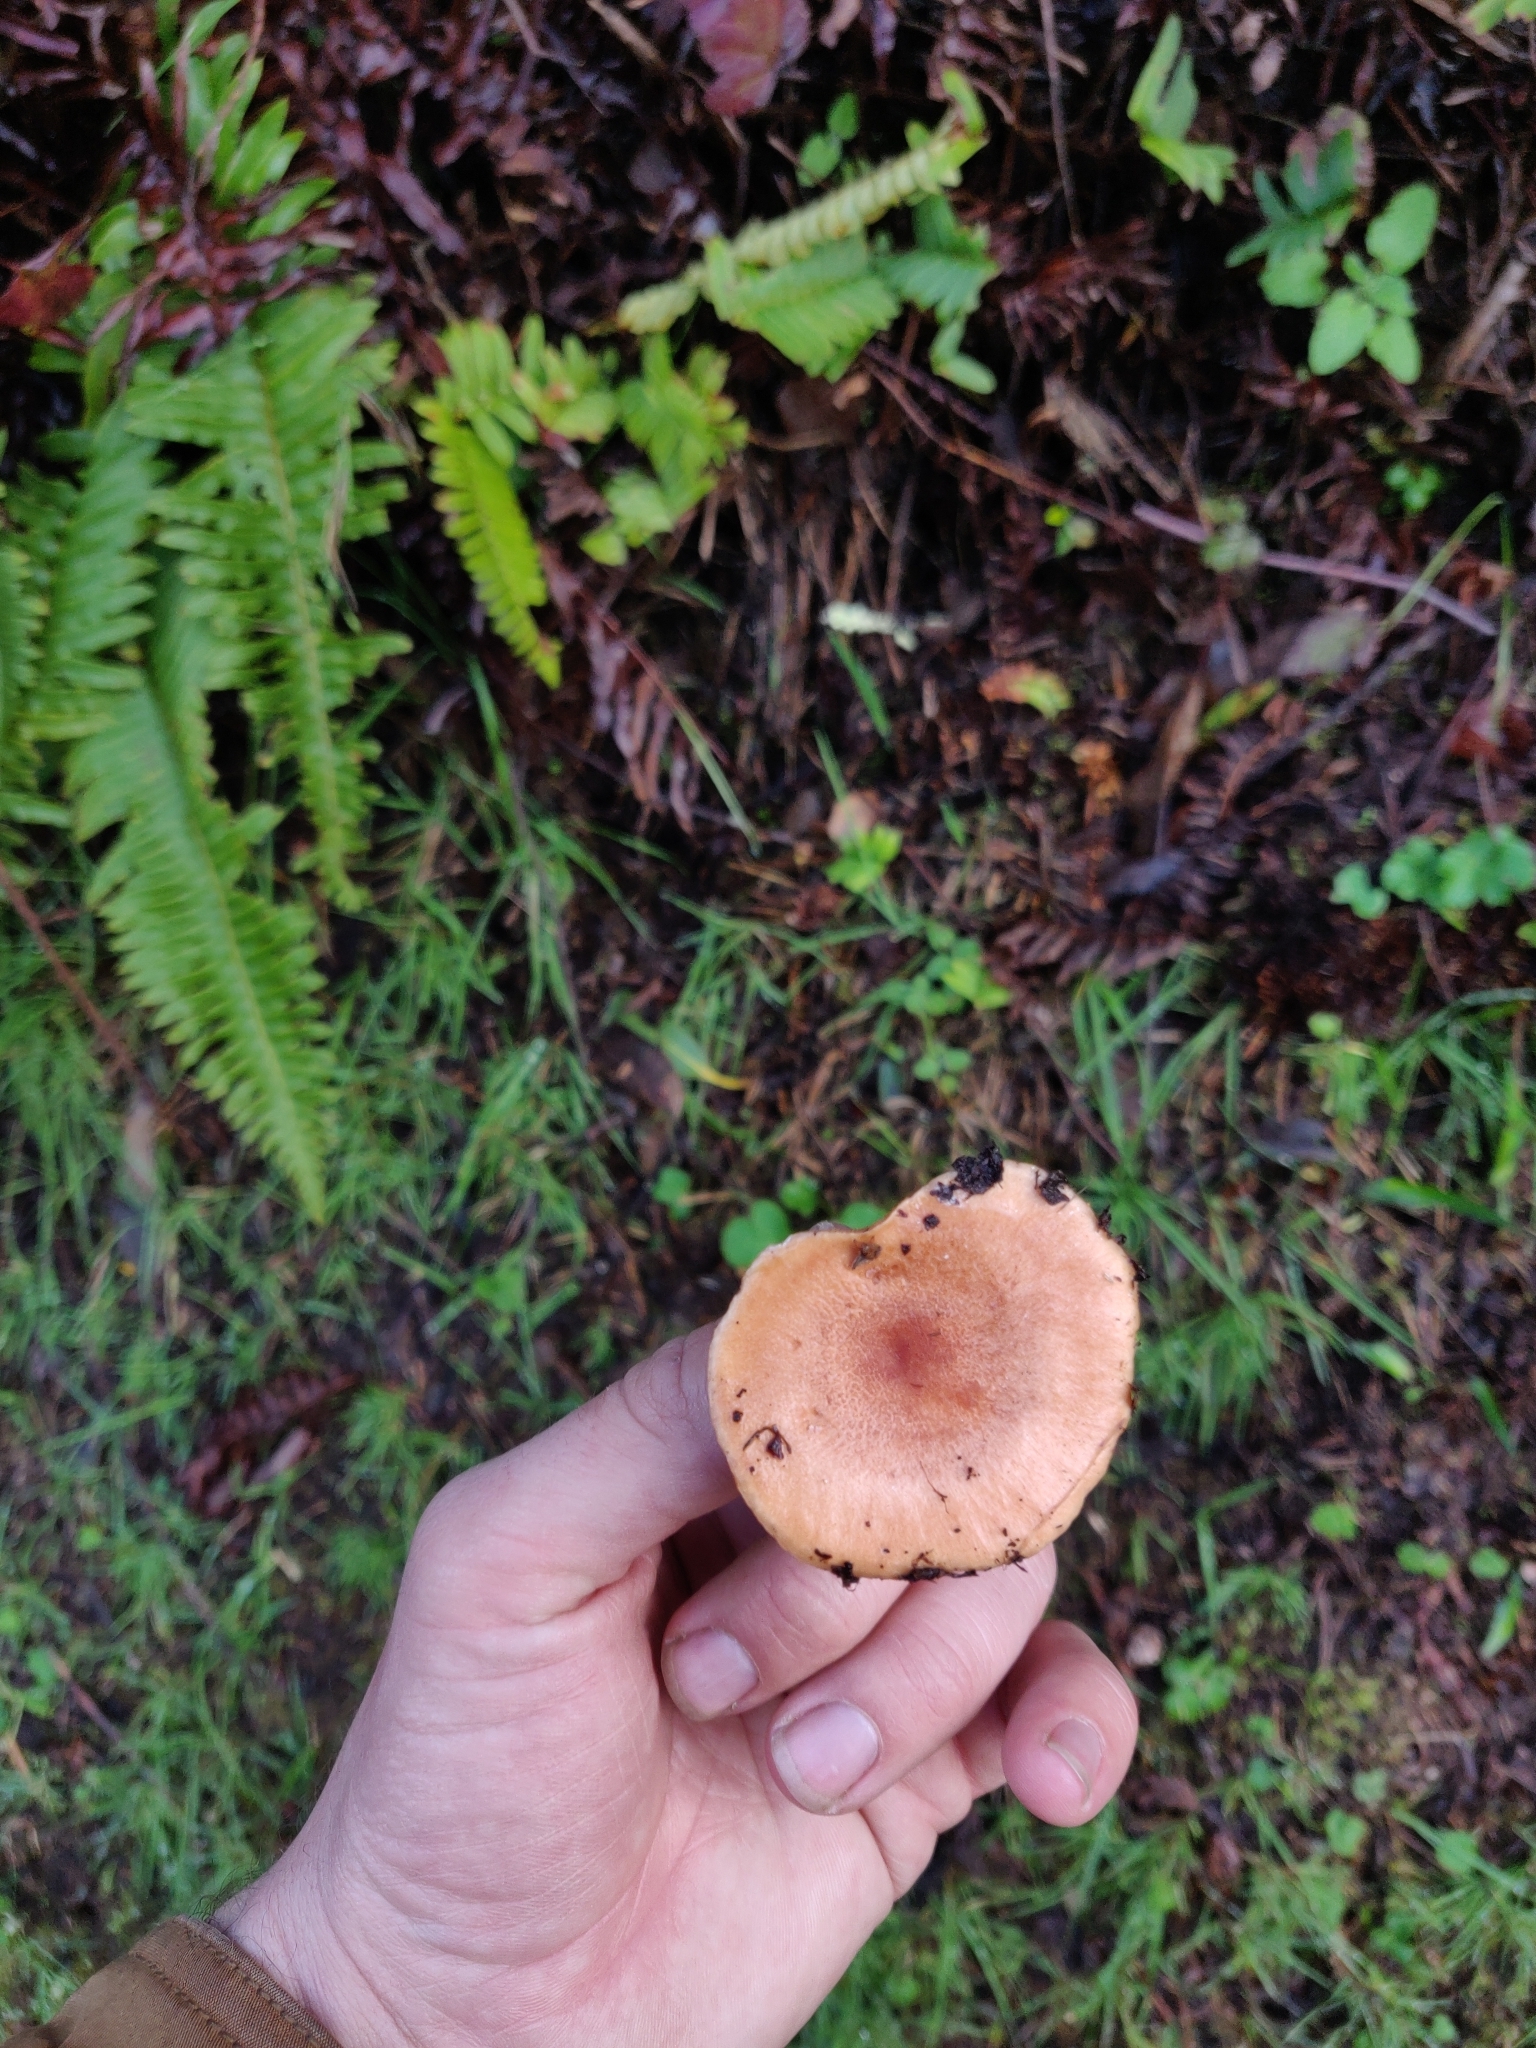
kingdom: Fungi
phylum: Basidiomycota
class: Agaricomycetes
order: Russulales
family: Russulaceae
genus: Lactarius
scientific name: Lactarius xanthogalactus
